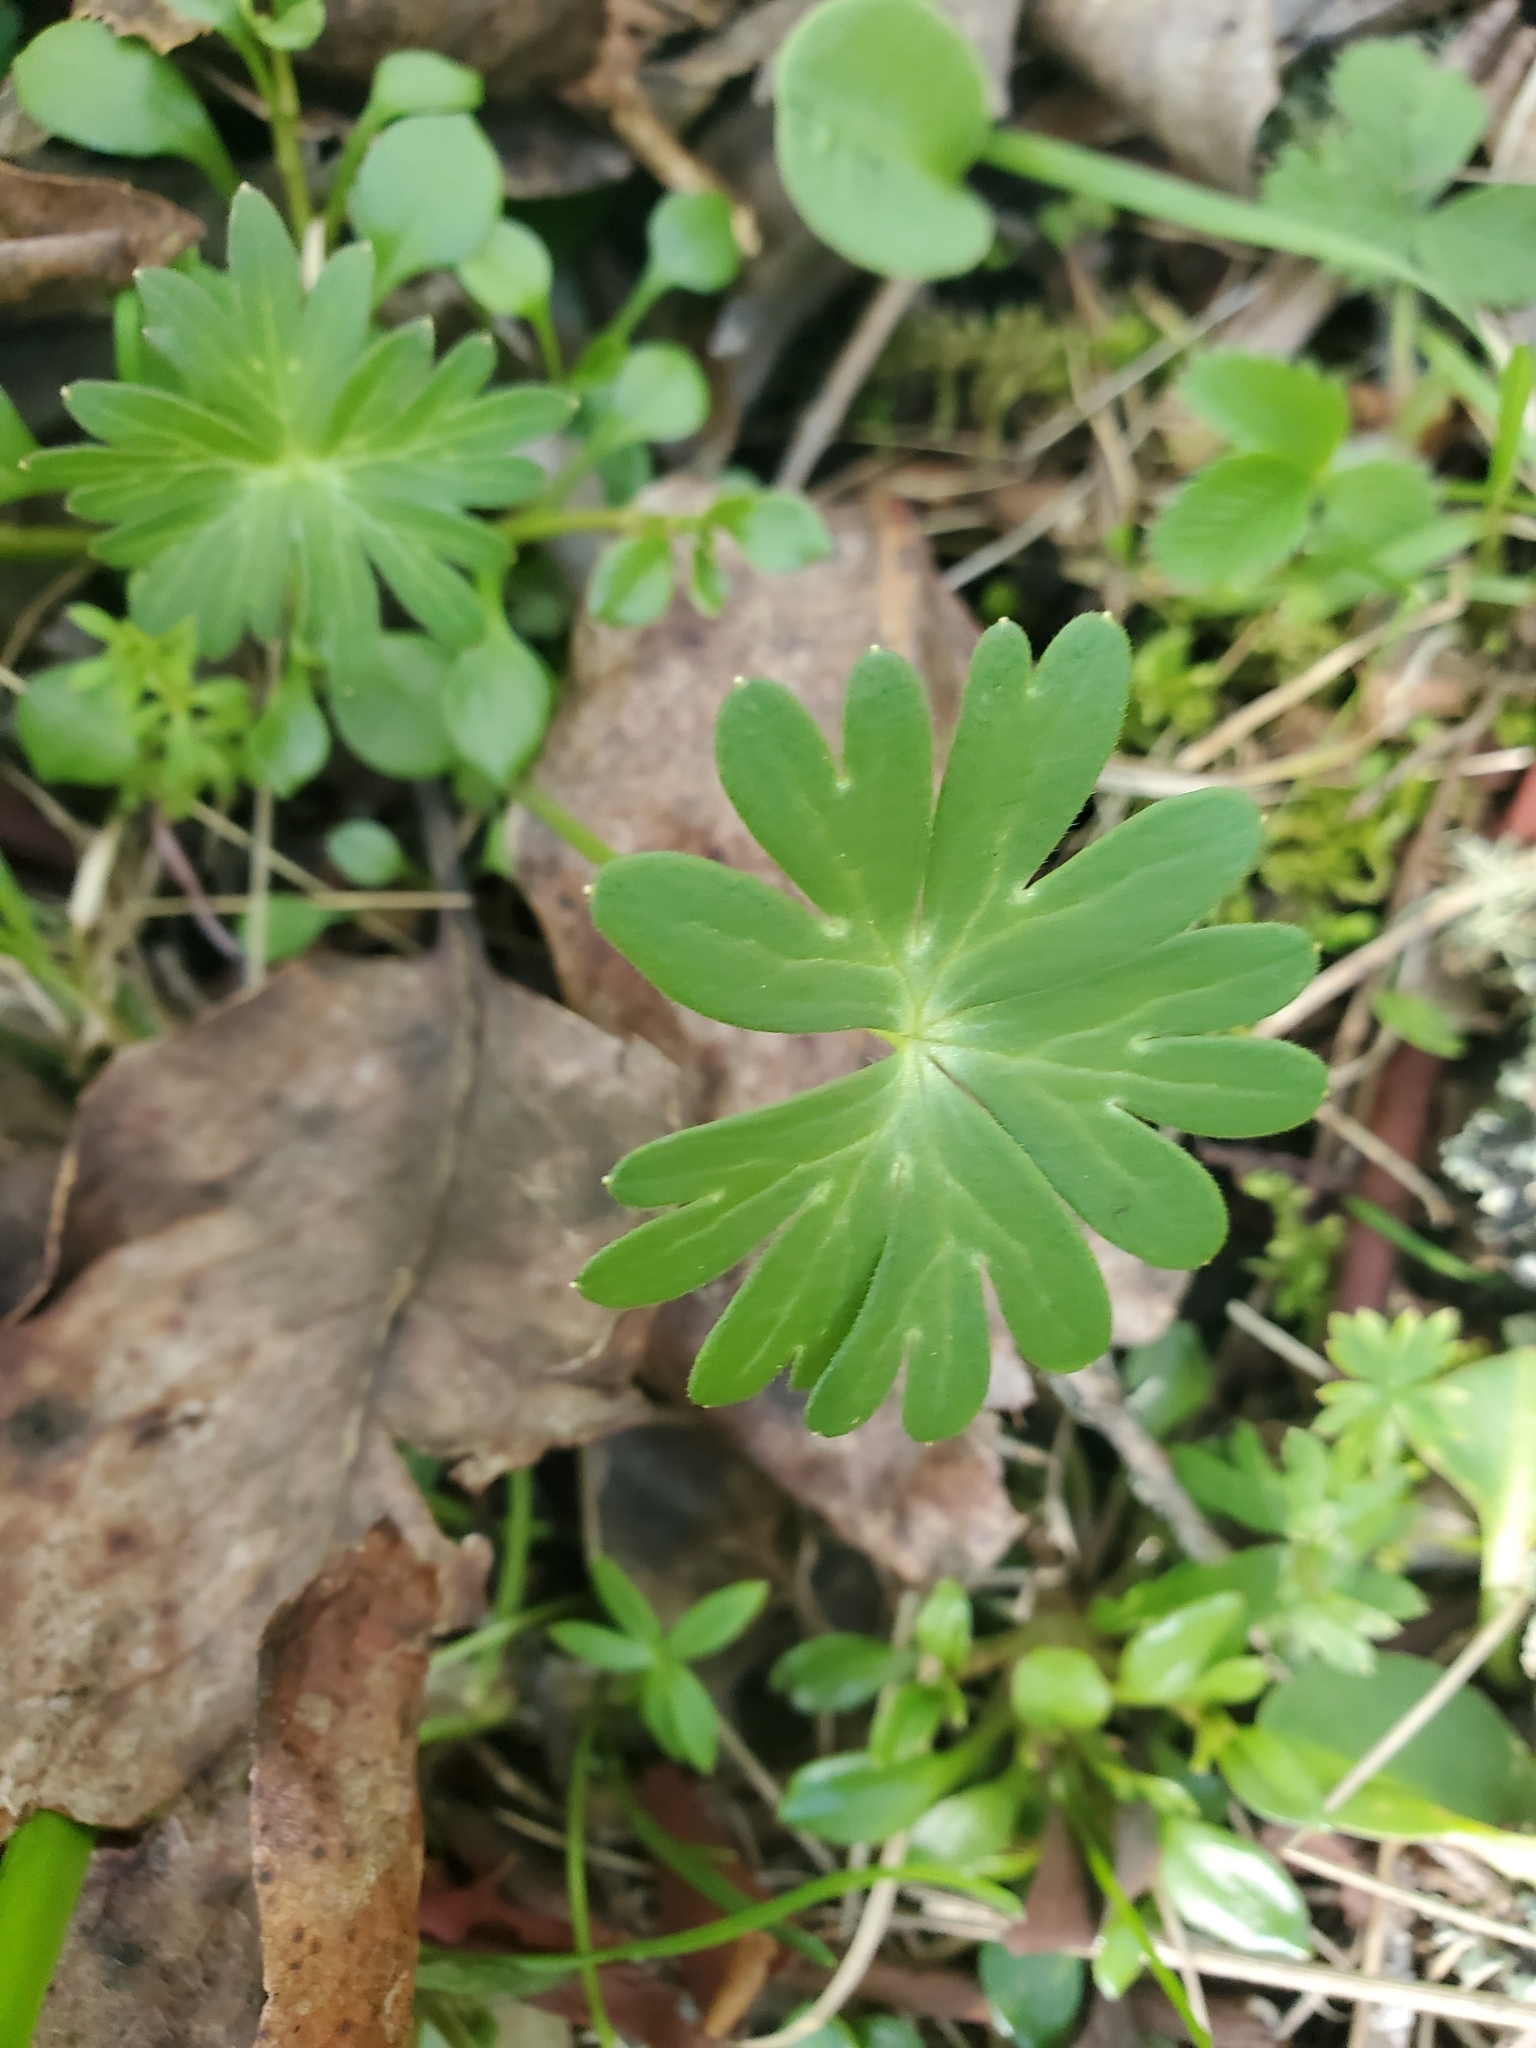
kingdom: Plantae
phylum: Tracheophyta
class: Magnoliopsida
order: Ranunculales
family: Ranunculaceae
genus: Delphinium
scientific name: Delphinium menziesii
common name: Menzies's larkspur
